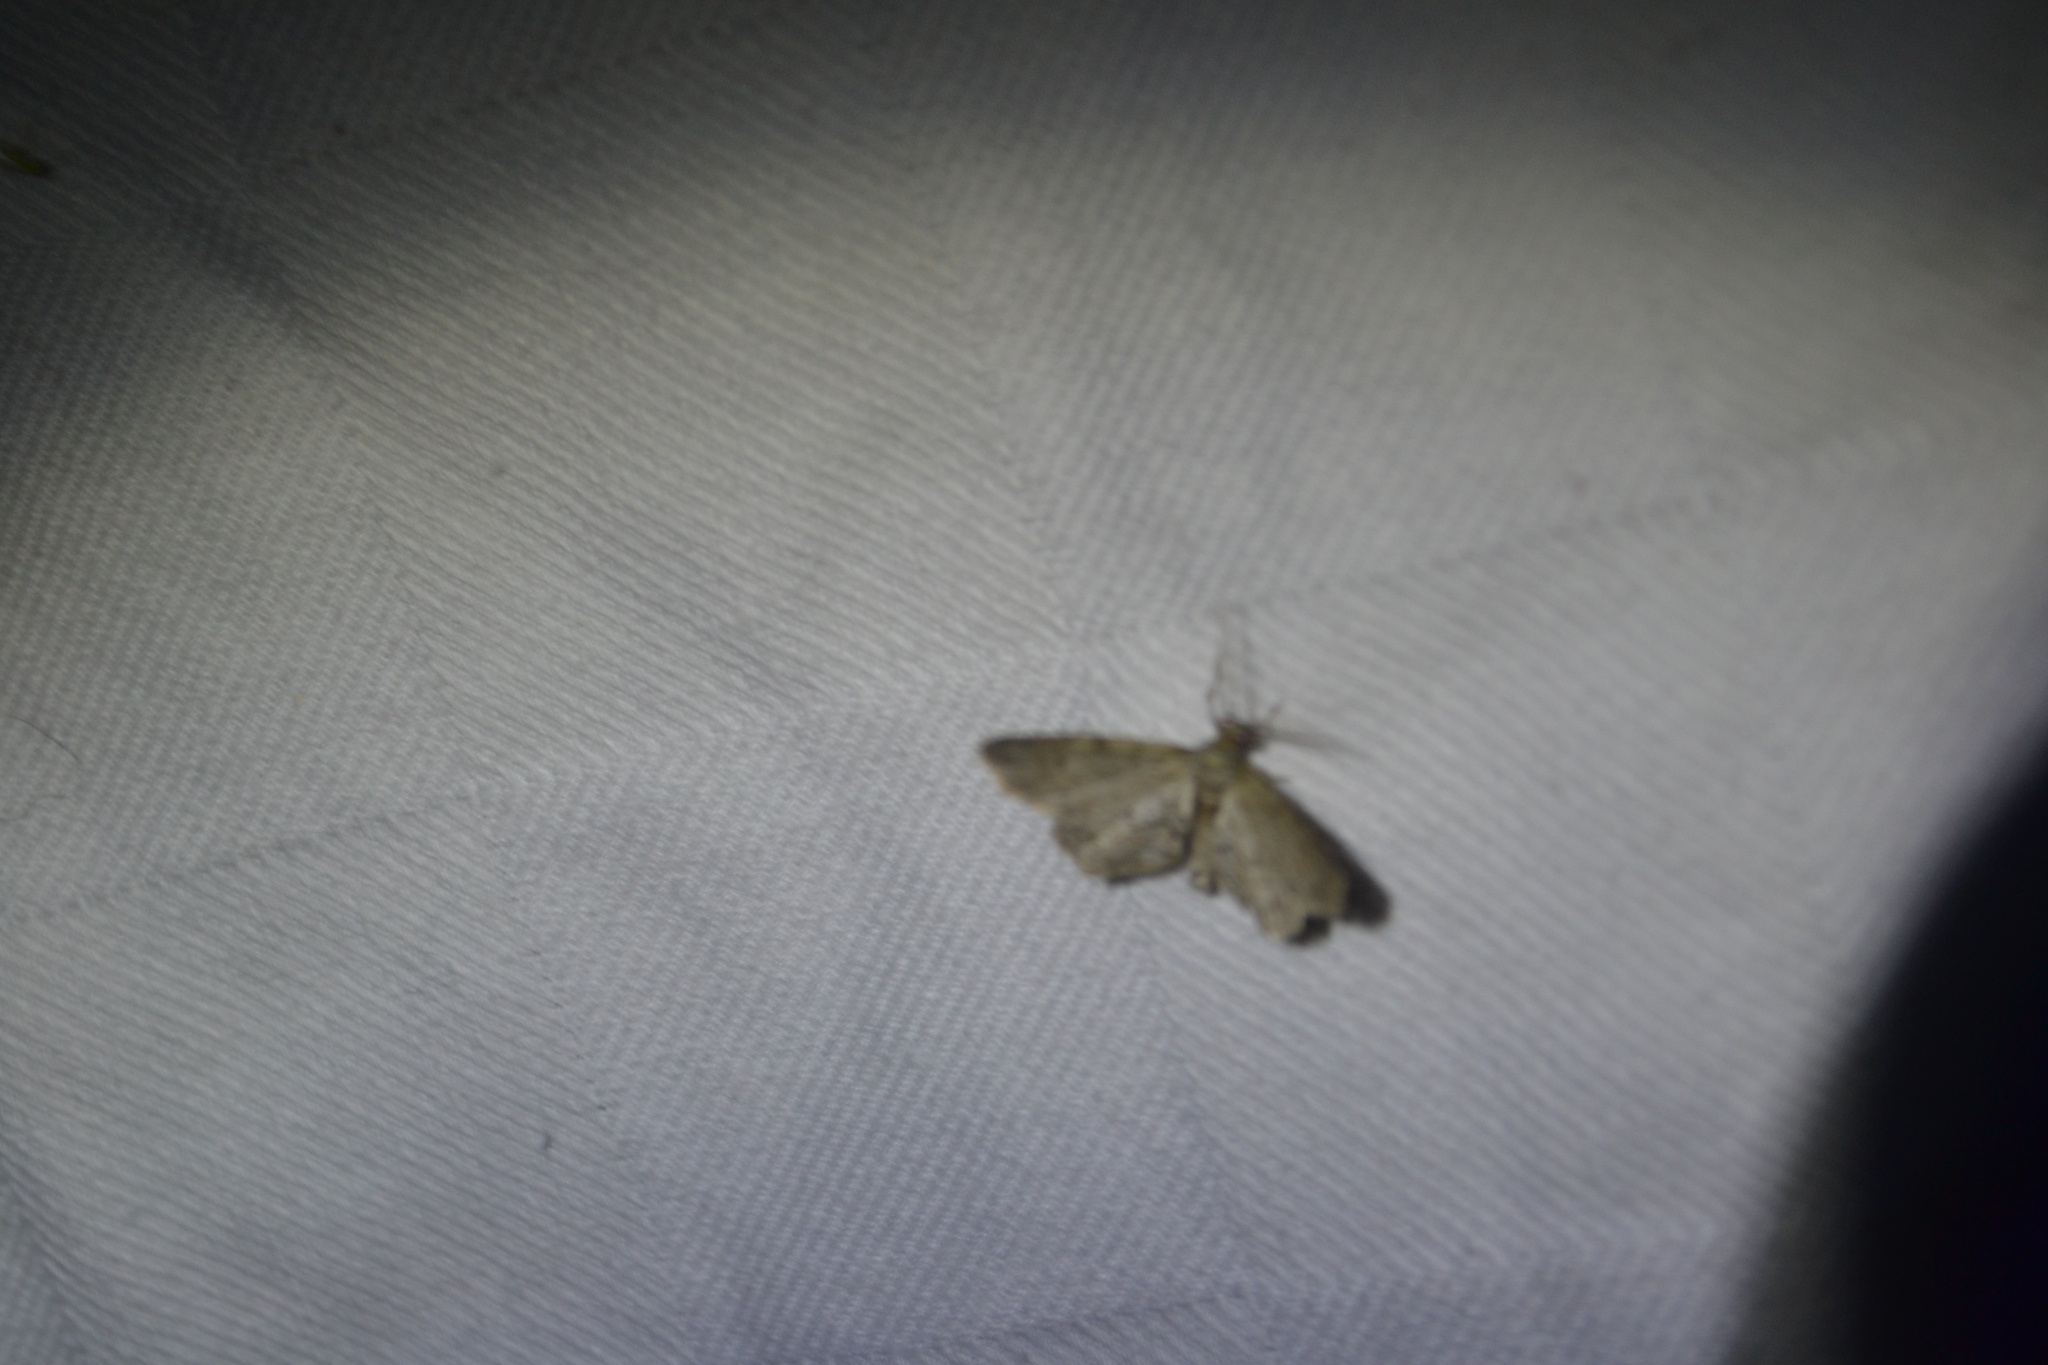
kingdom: Animalia
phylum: Arthropoda
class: Insecta
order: Lepidoptera
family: Geometridae
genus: Glenoides
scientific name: Glenoides texanaria
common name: Texas gray
